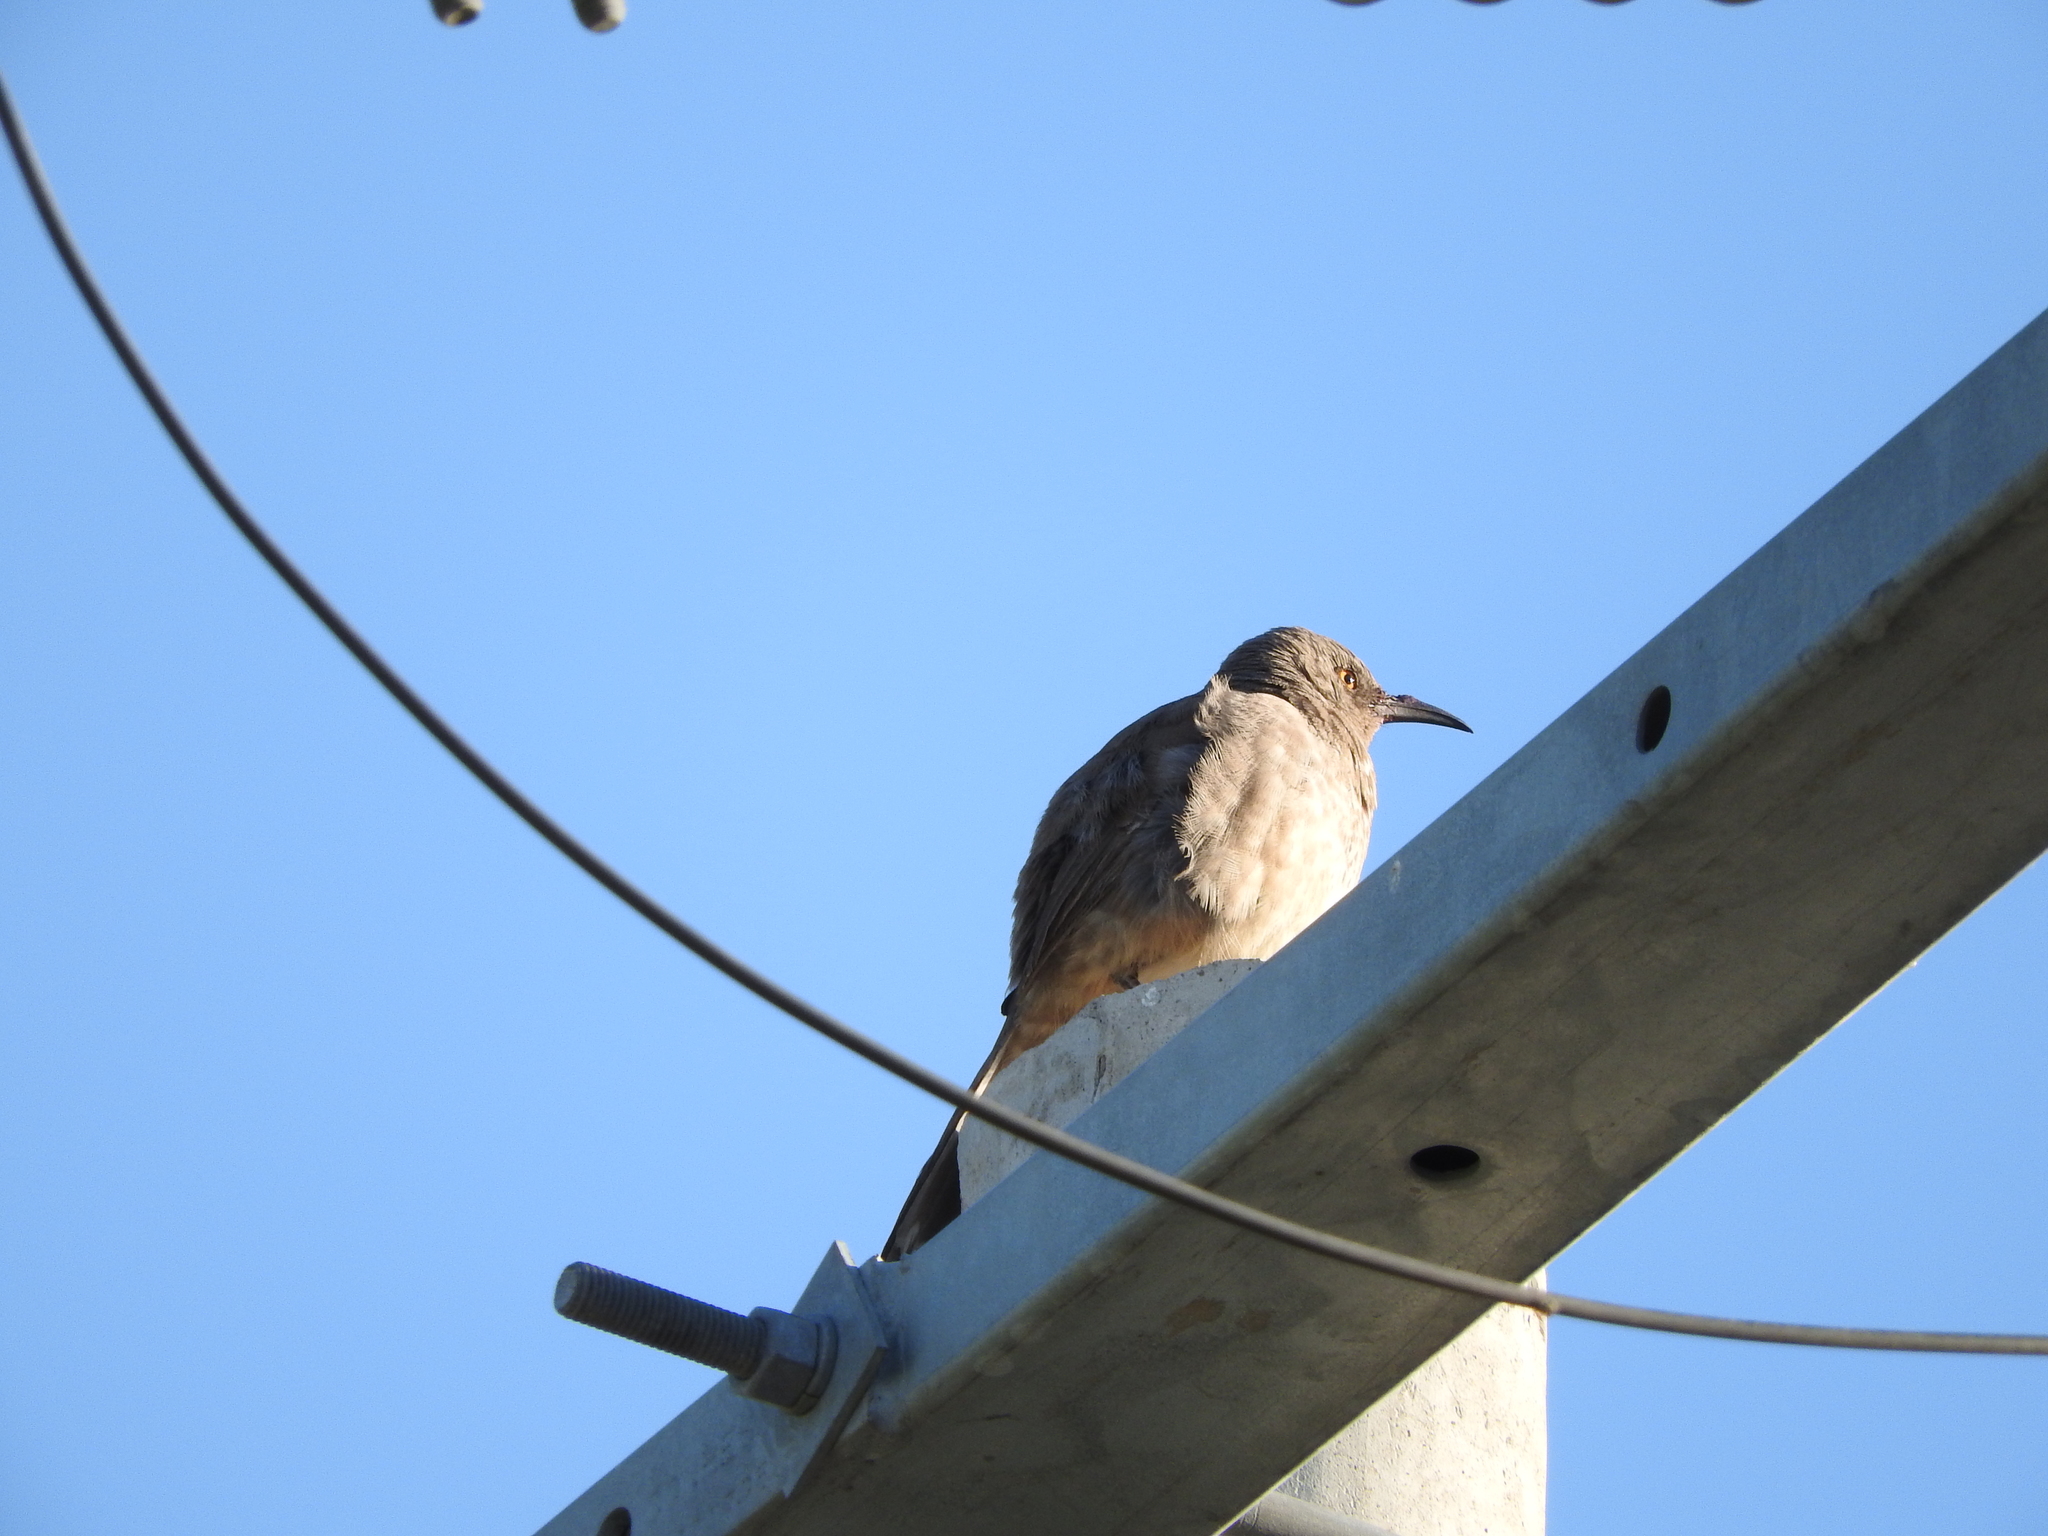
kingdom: Animalia
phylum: Chordata
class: Aves
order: Passeriformes
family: Mimidae
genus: Toxostoma
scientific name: Toxostoma curvirostre
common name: Curve-billed thrasher
